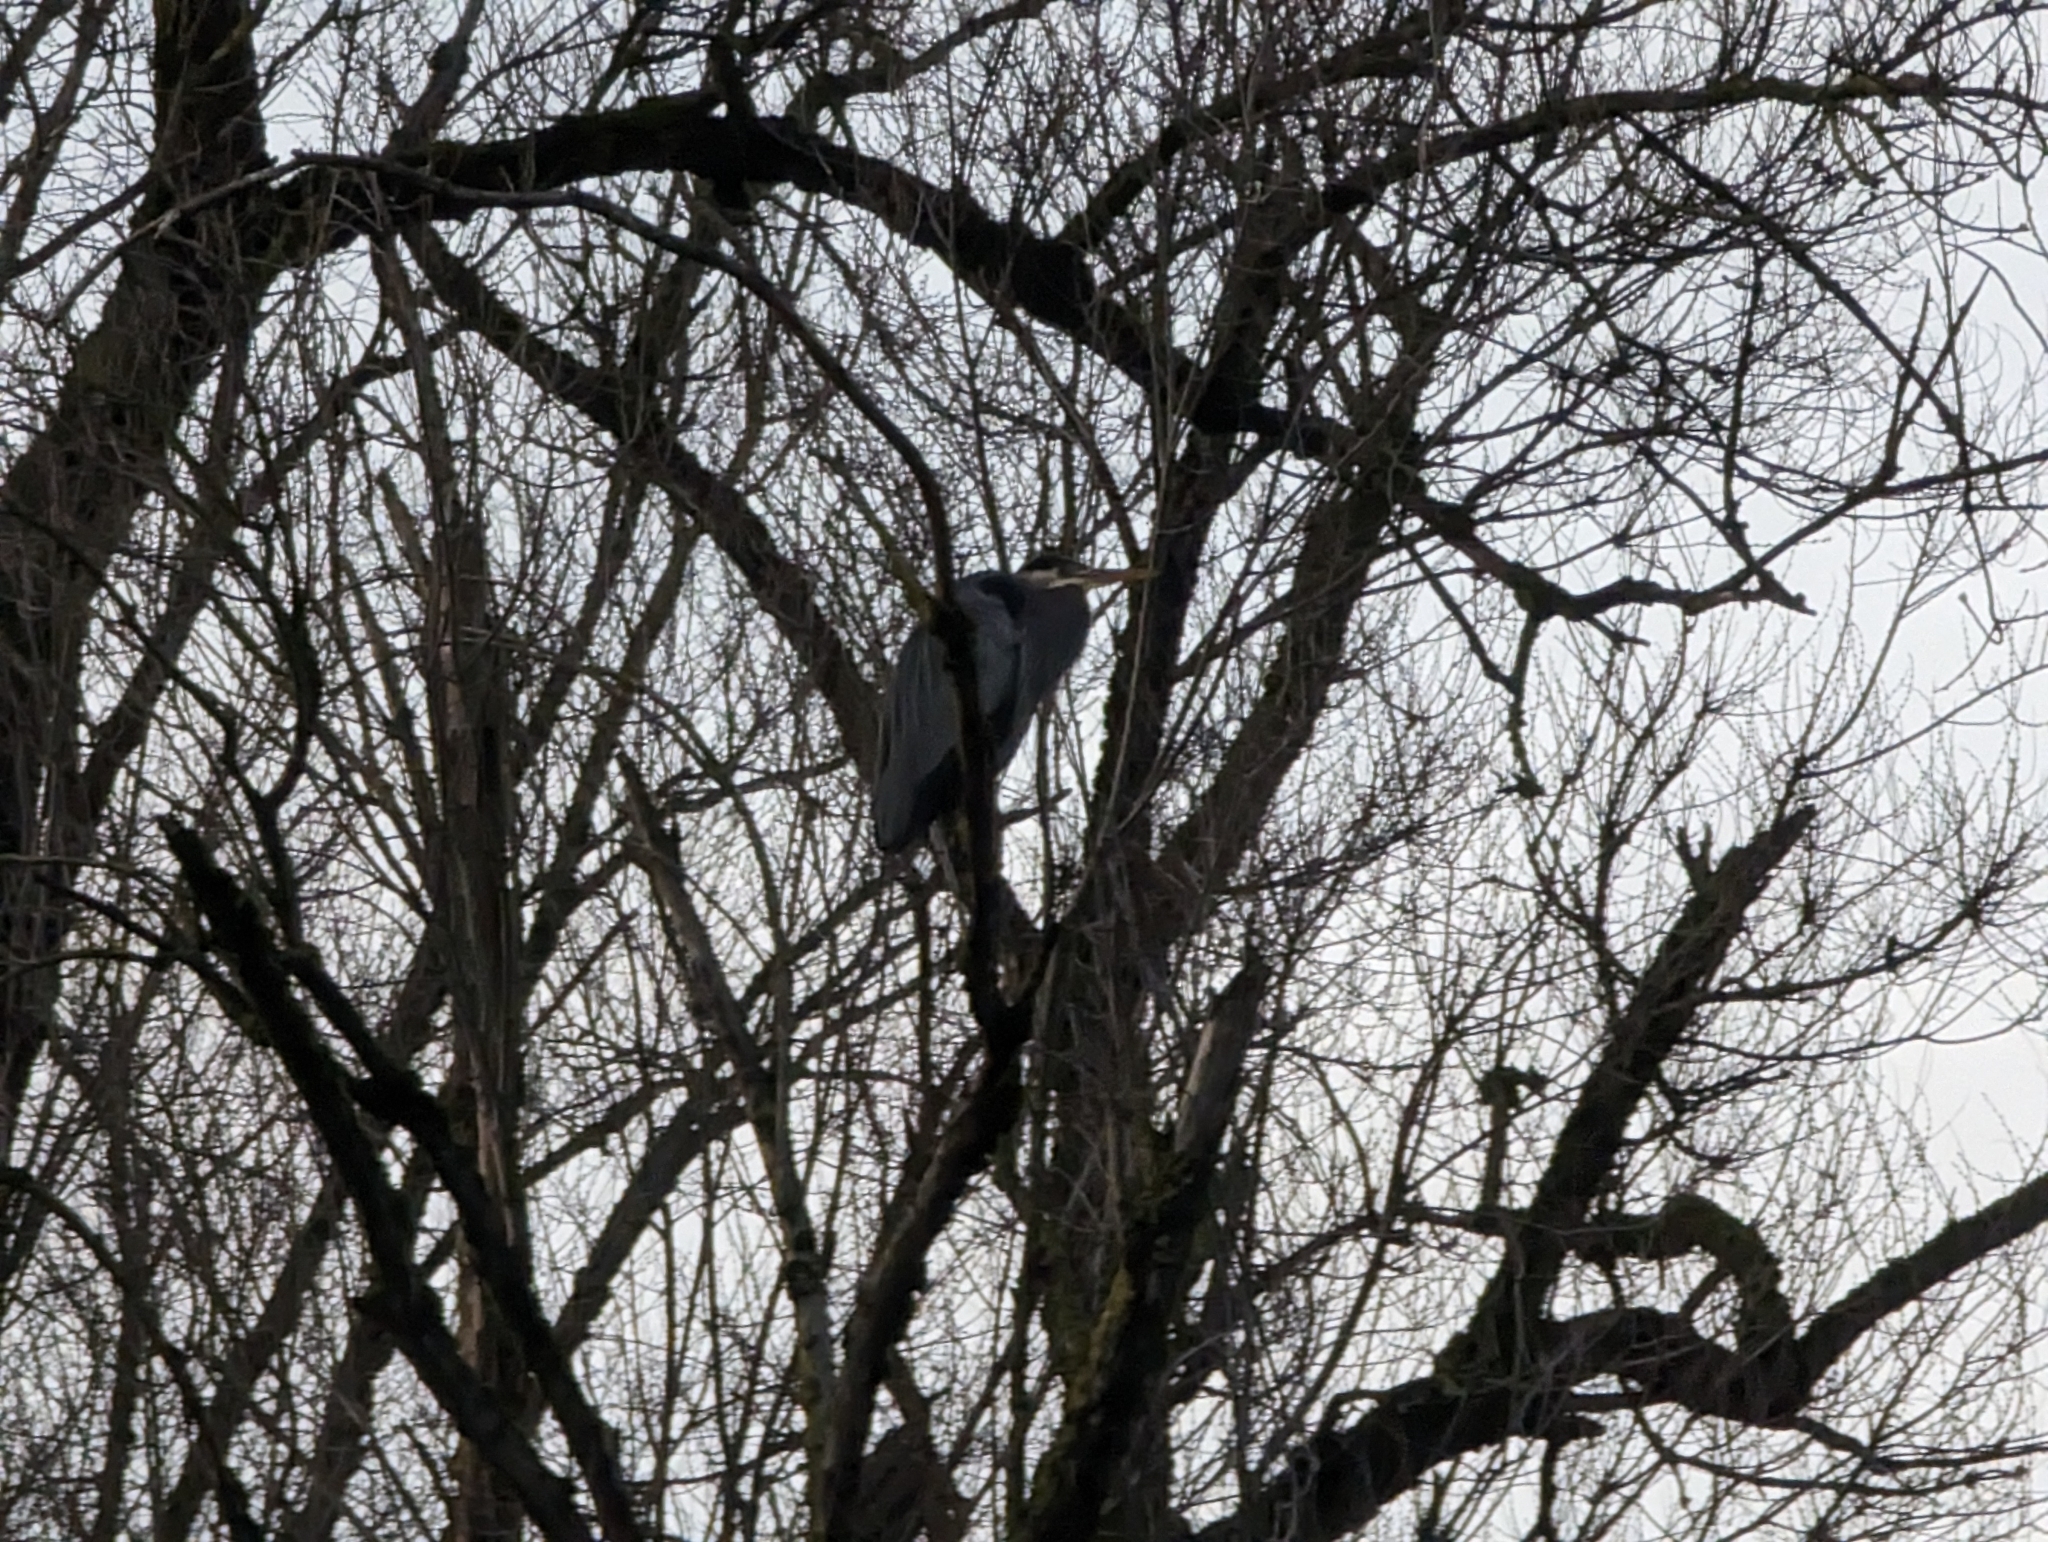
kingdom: Animalia
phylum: Chordata
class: Aves
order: Pelecaniformes
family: Ardeidae
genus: Ardea
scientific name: Ardea herodias
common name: Great blue heron
